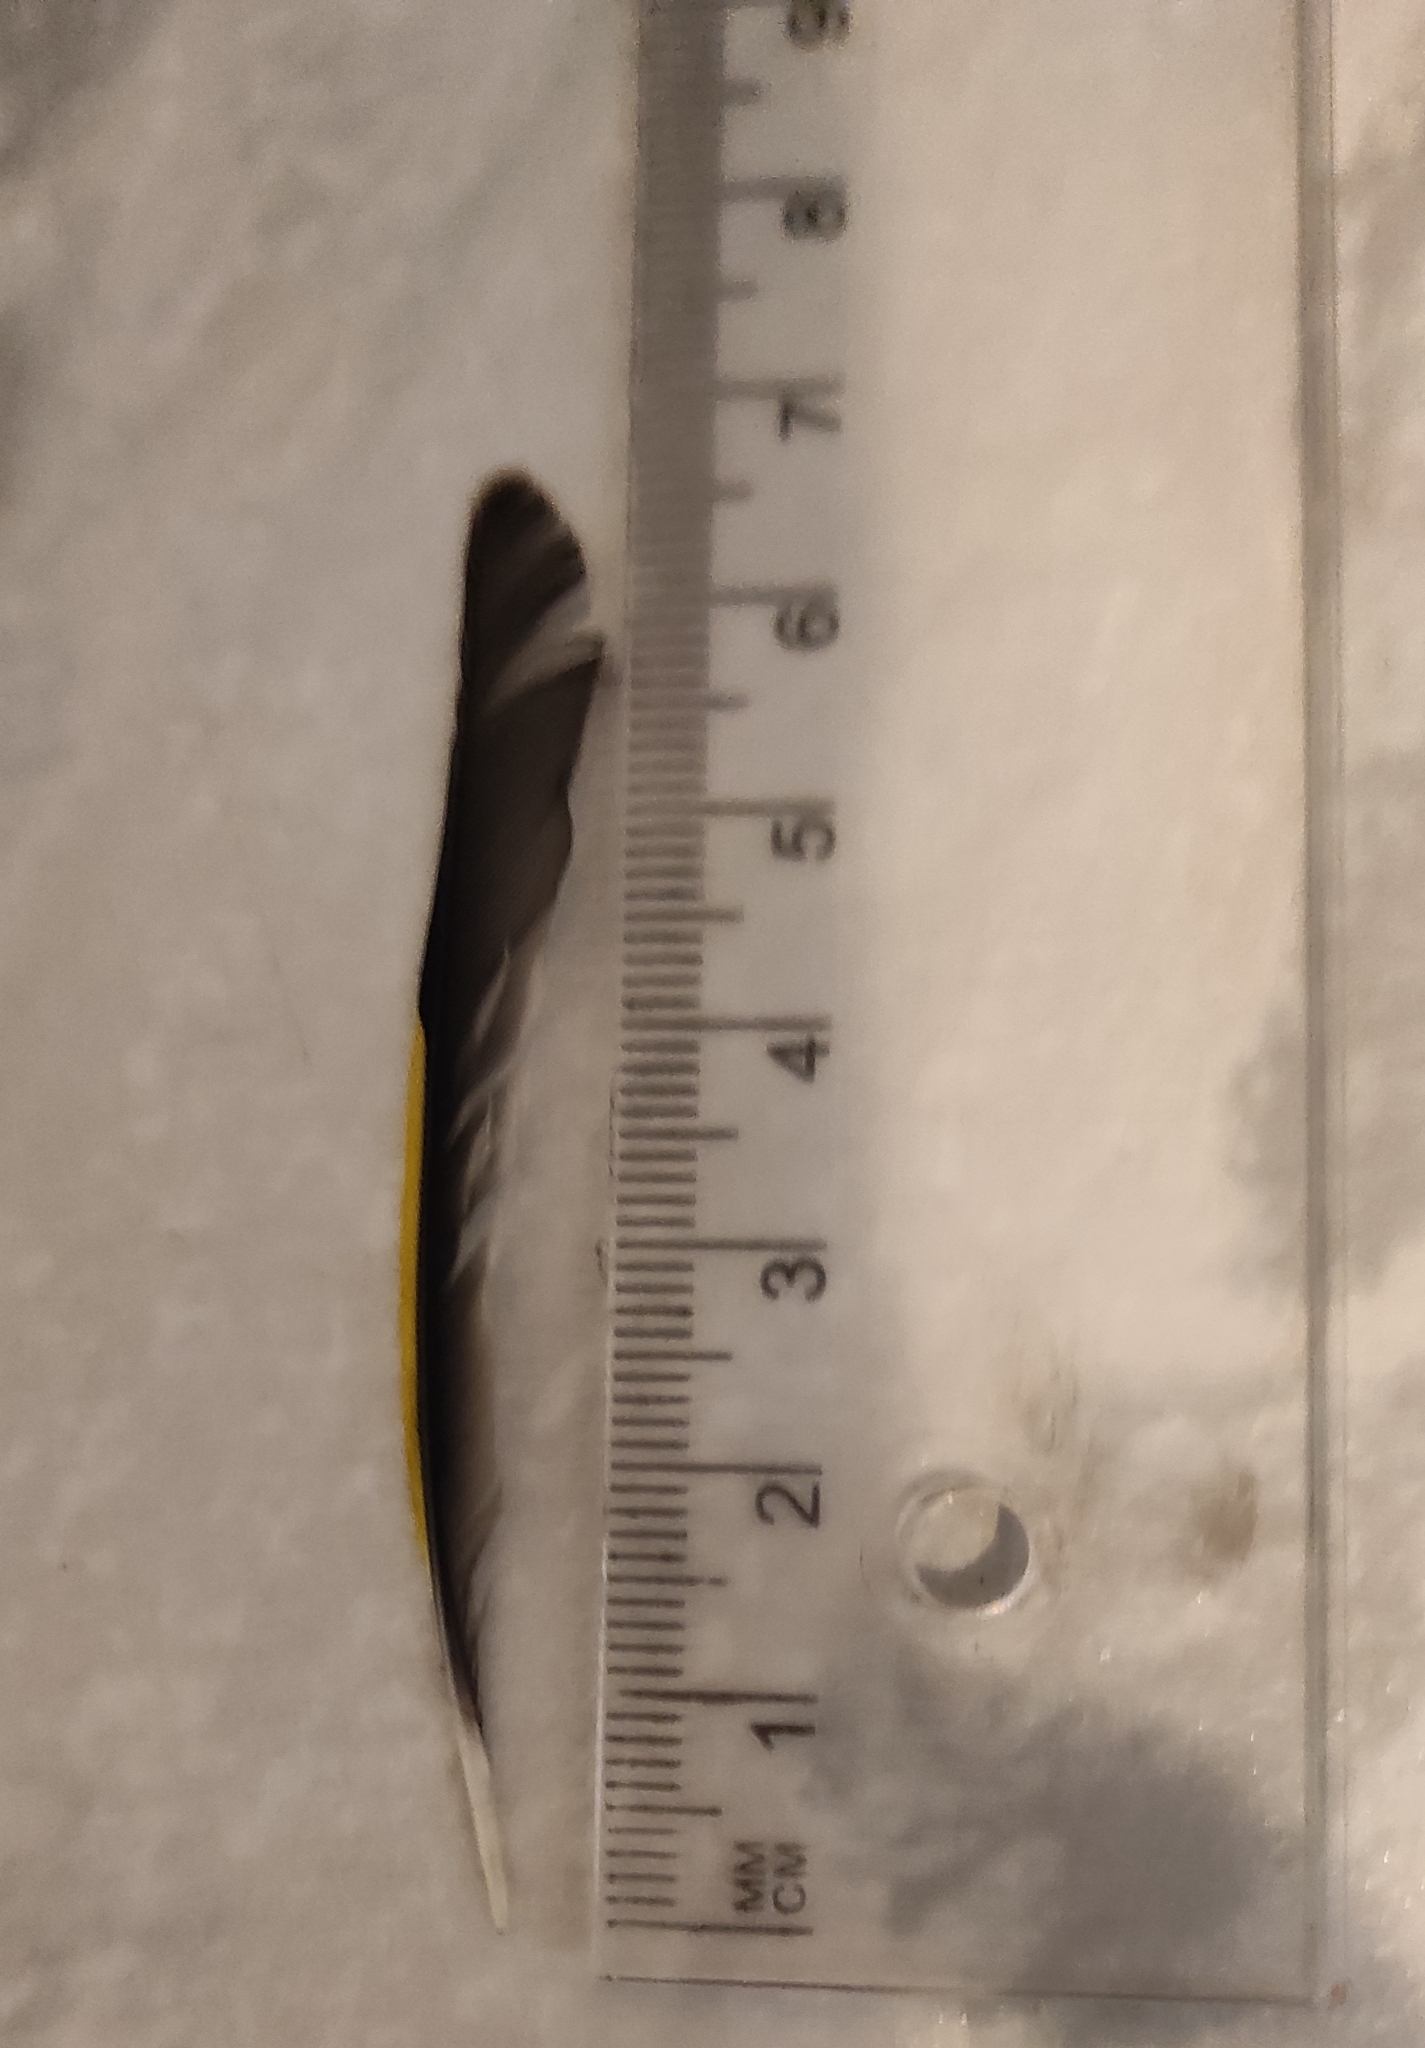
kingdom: Animalia
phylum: Chordata
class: Aves
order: Passeriformes
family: Fringillidae
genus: Carduelis
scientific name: Carduelis carduelis
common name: European goldfinch
